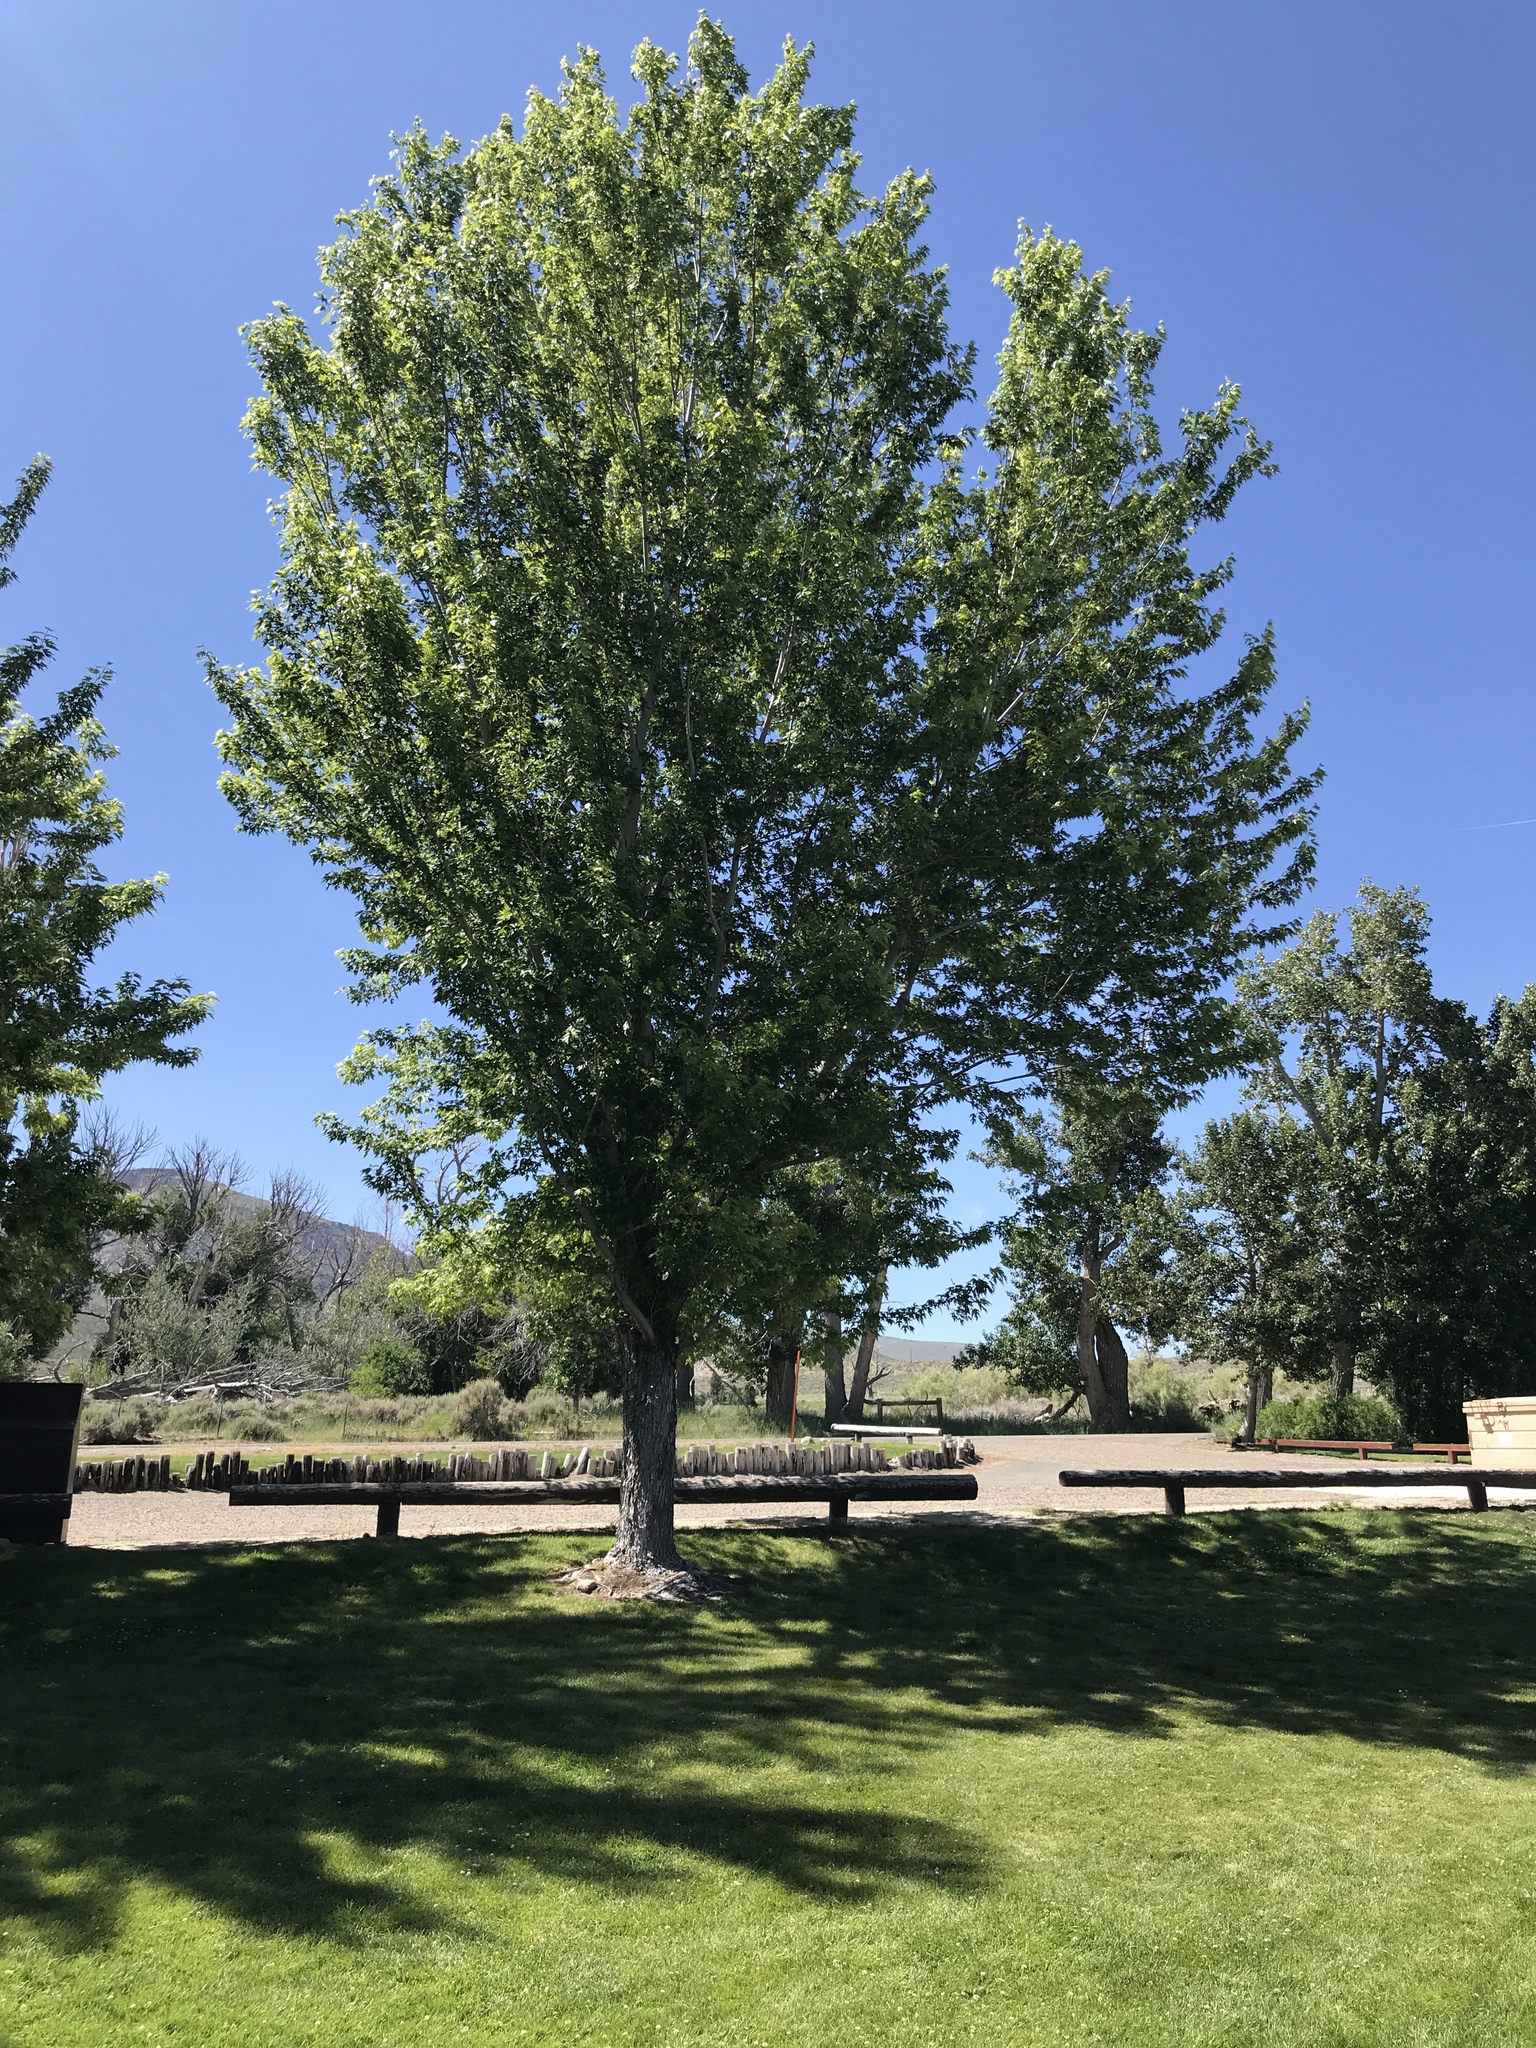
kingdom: Plantae
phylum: Tracheophyta
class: Magnoliopsida
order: Sapindales
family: Sapindaceae
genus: Acer
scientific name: Acer saccharinum
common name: Silver maple
